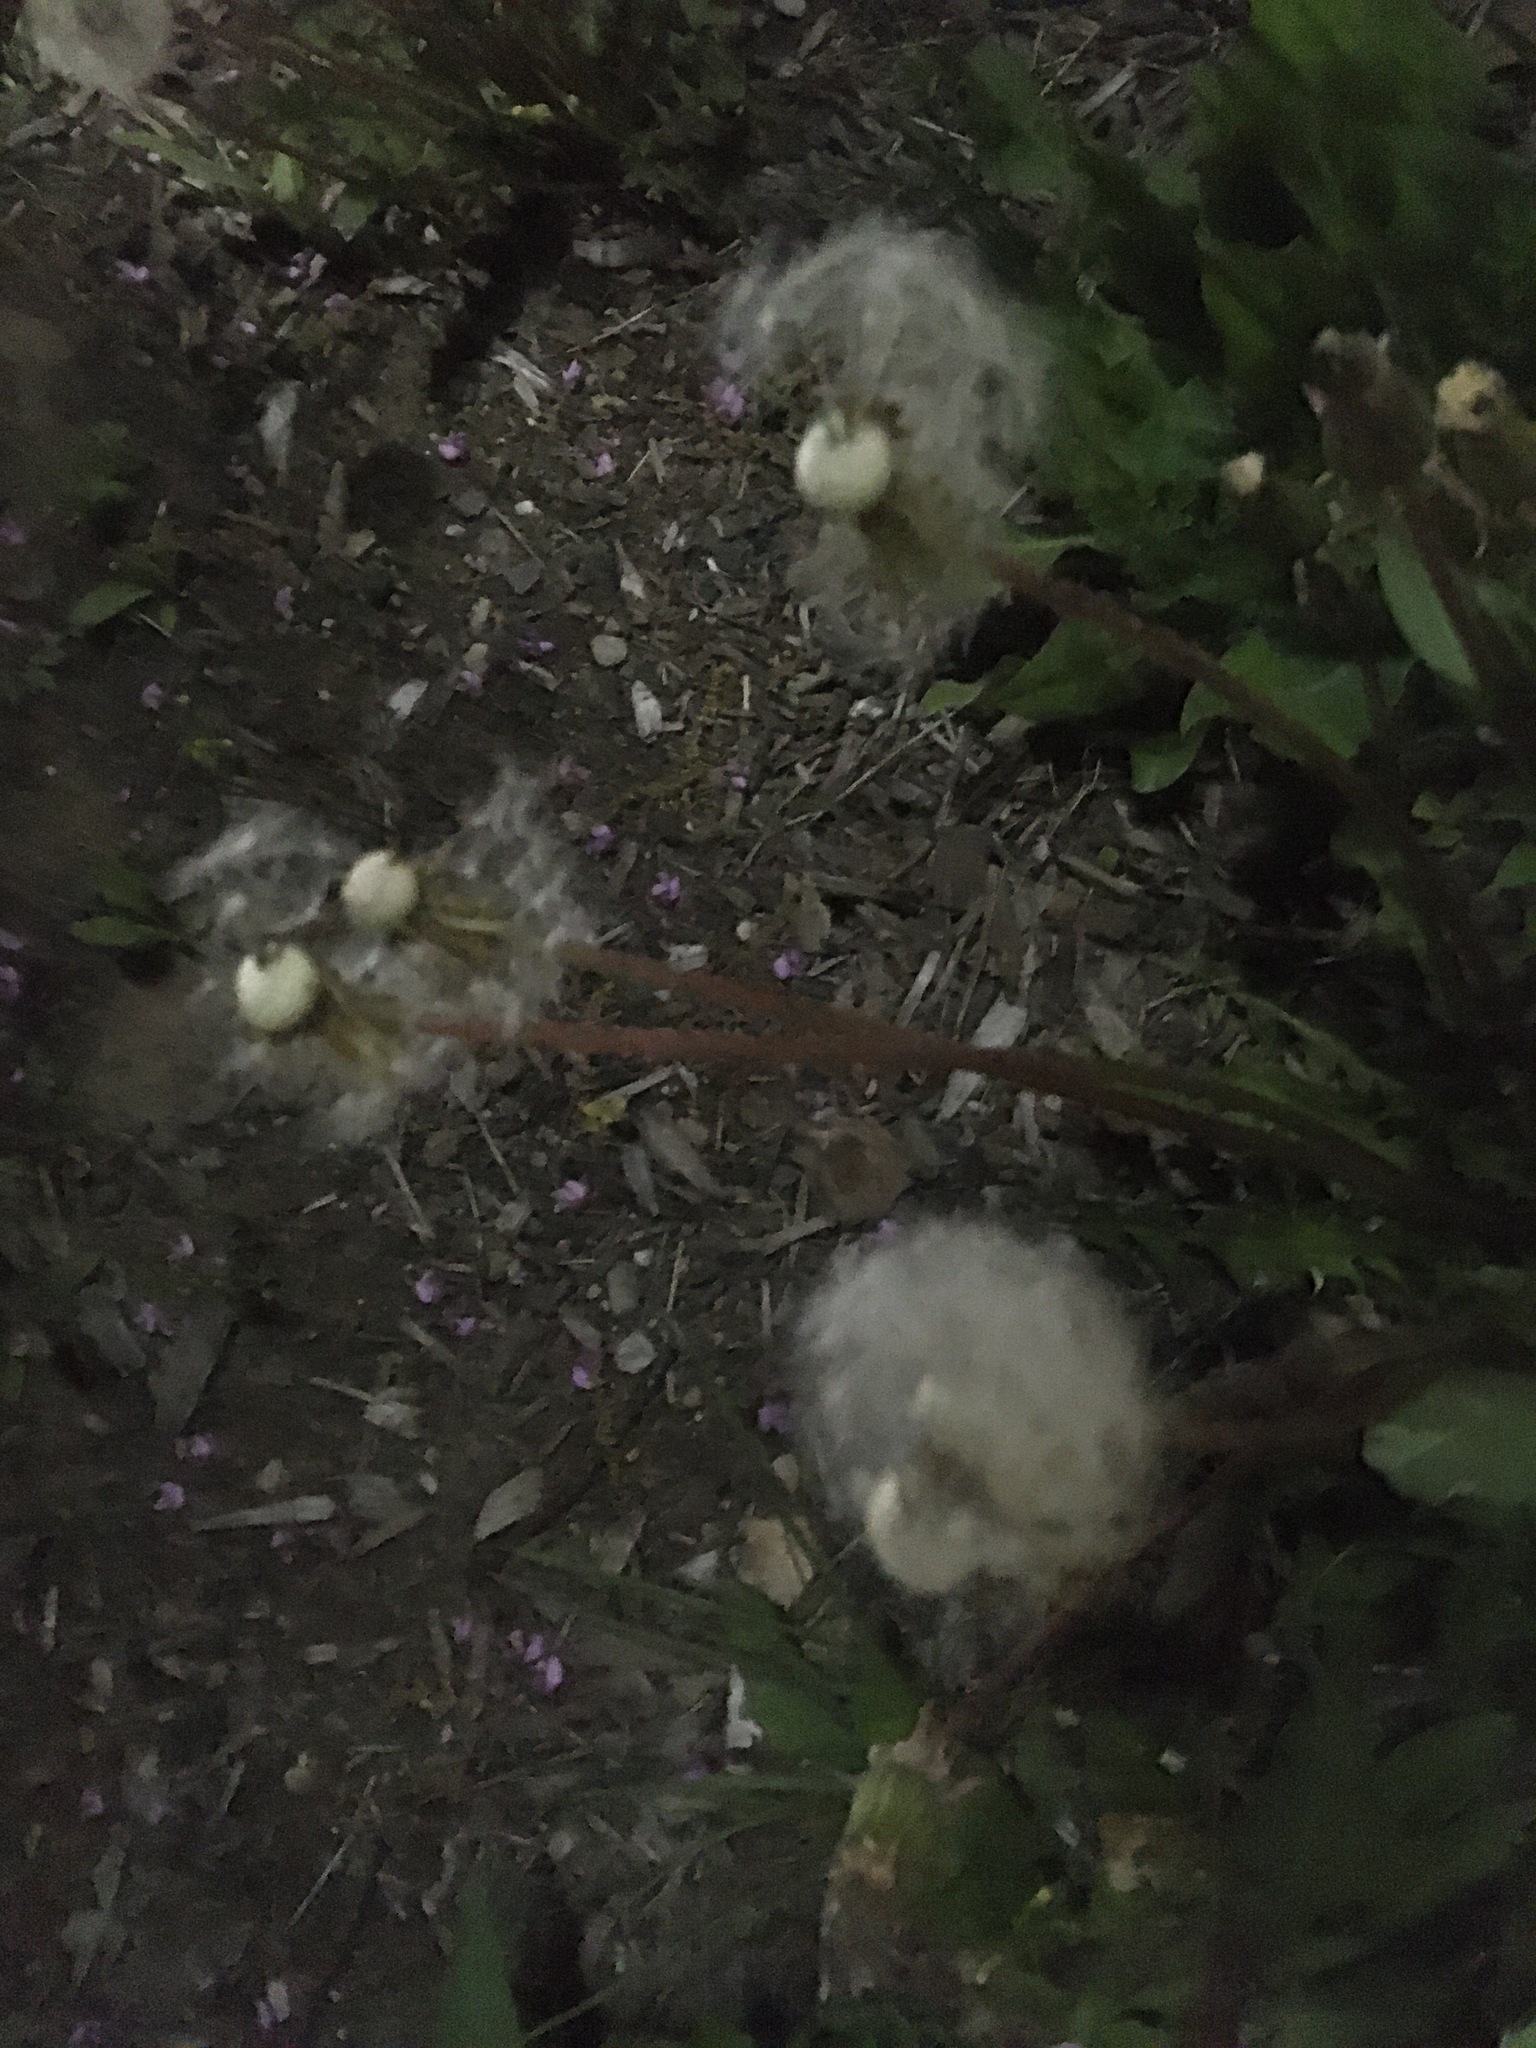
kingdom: Plantae
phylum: Tracheophyta
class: Magnoliopsida
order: Asterales
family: Asteraceae
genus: Taraxacum
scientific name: Taraxacum officinale
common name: Common dandelion
